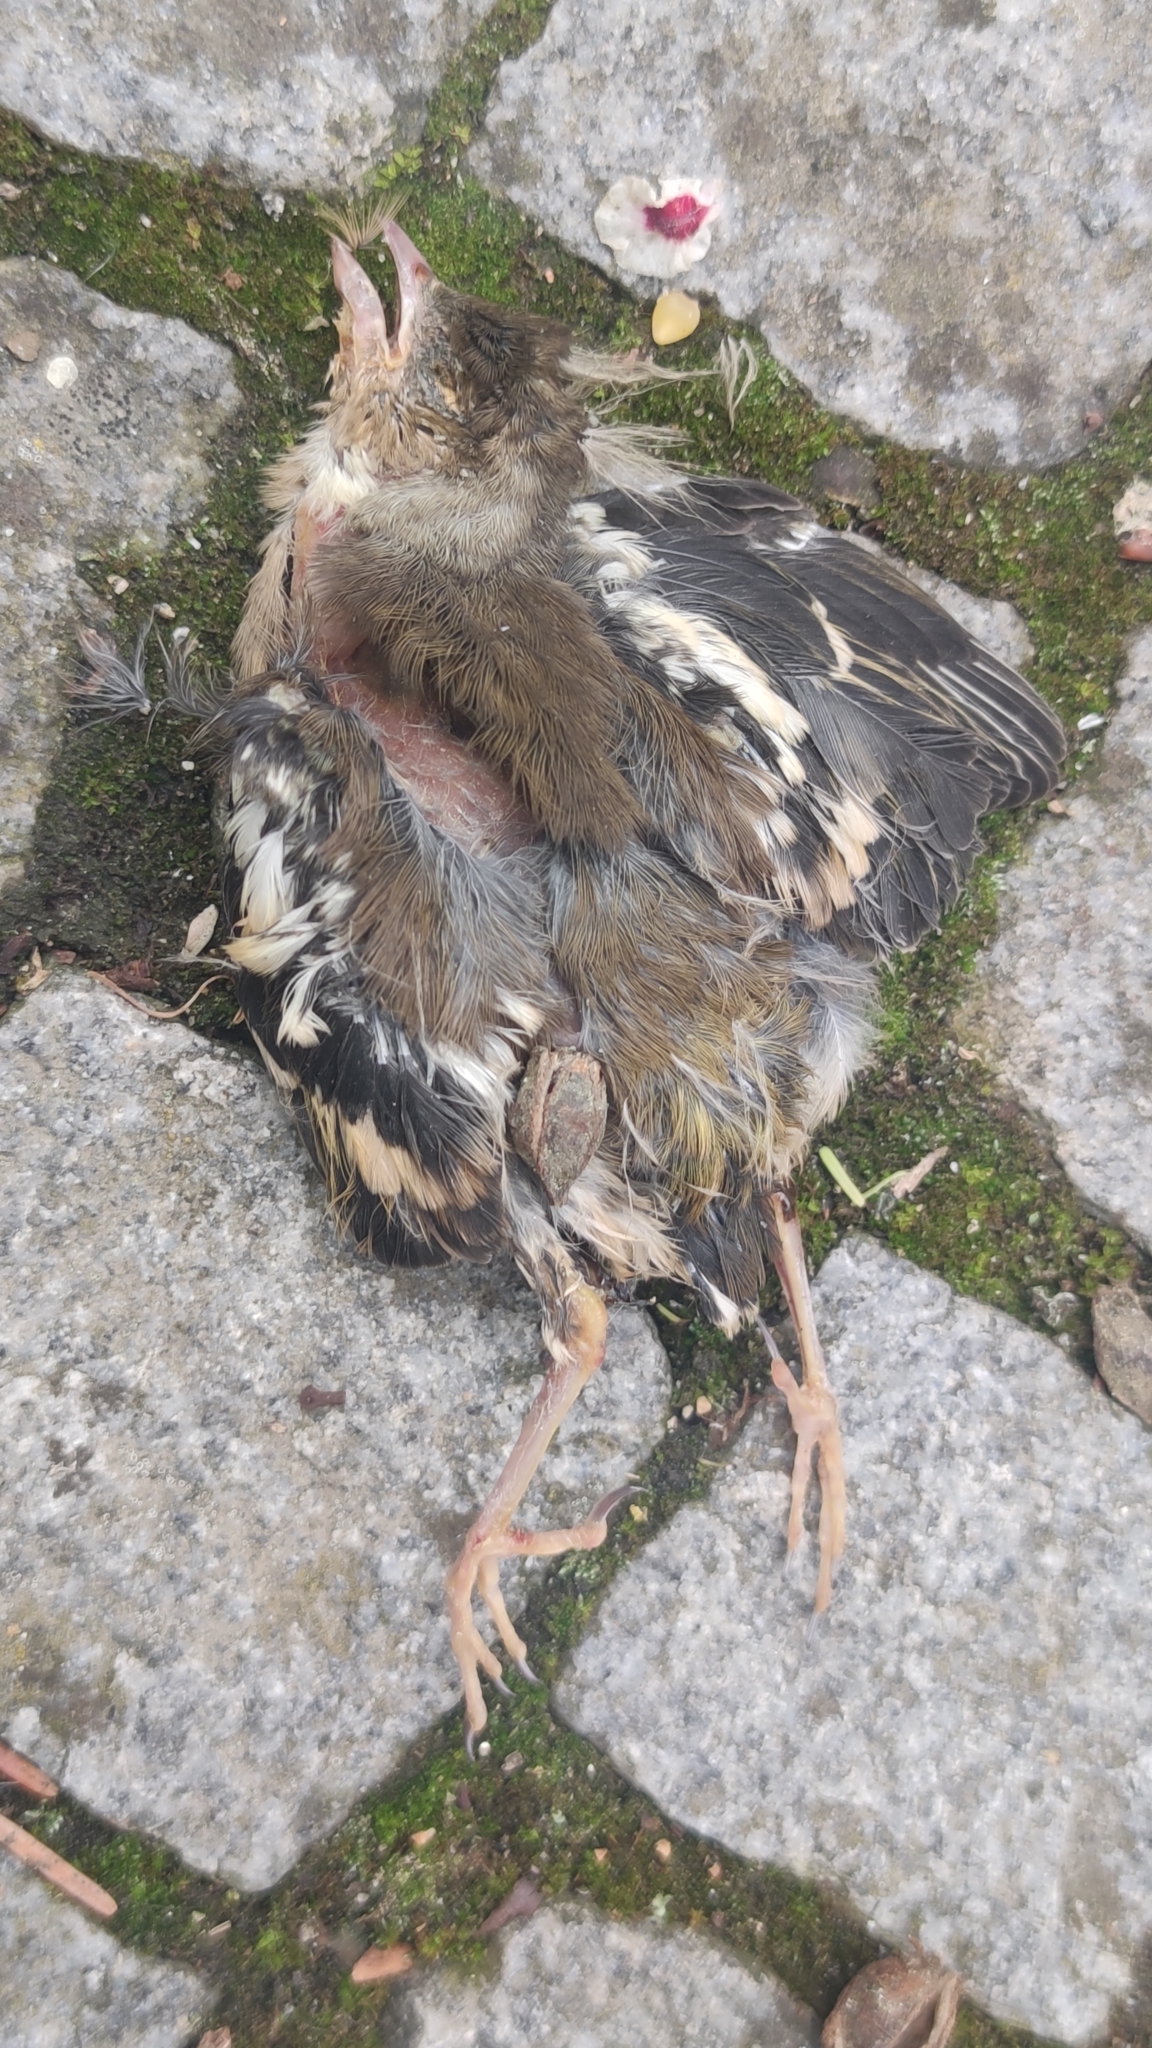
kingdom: Animalia
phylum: Chordata
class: Aves
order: Passeriformes
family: Fringillidae
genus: Fringilla
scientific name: Fringilla coelebs
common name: Common chaffinch
